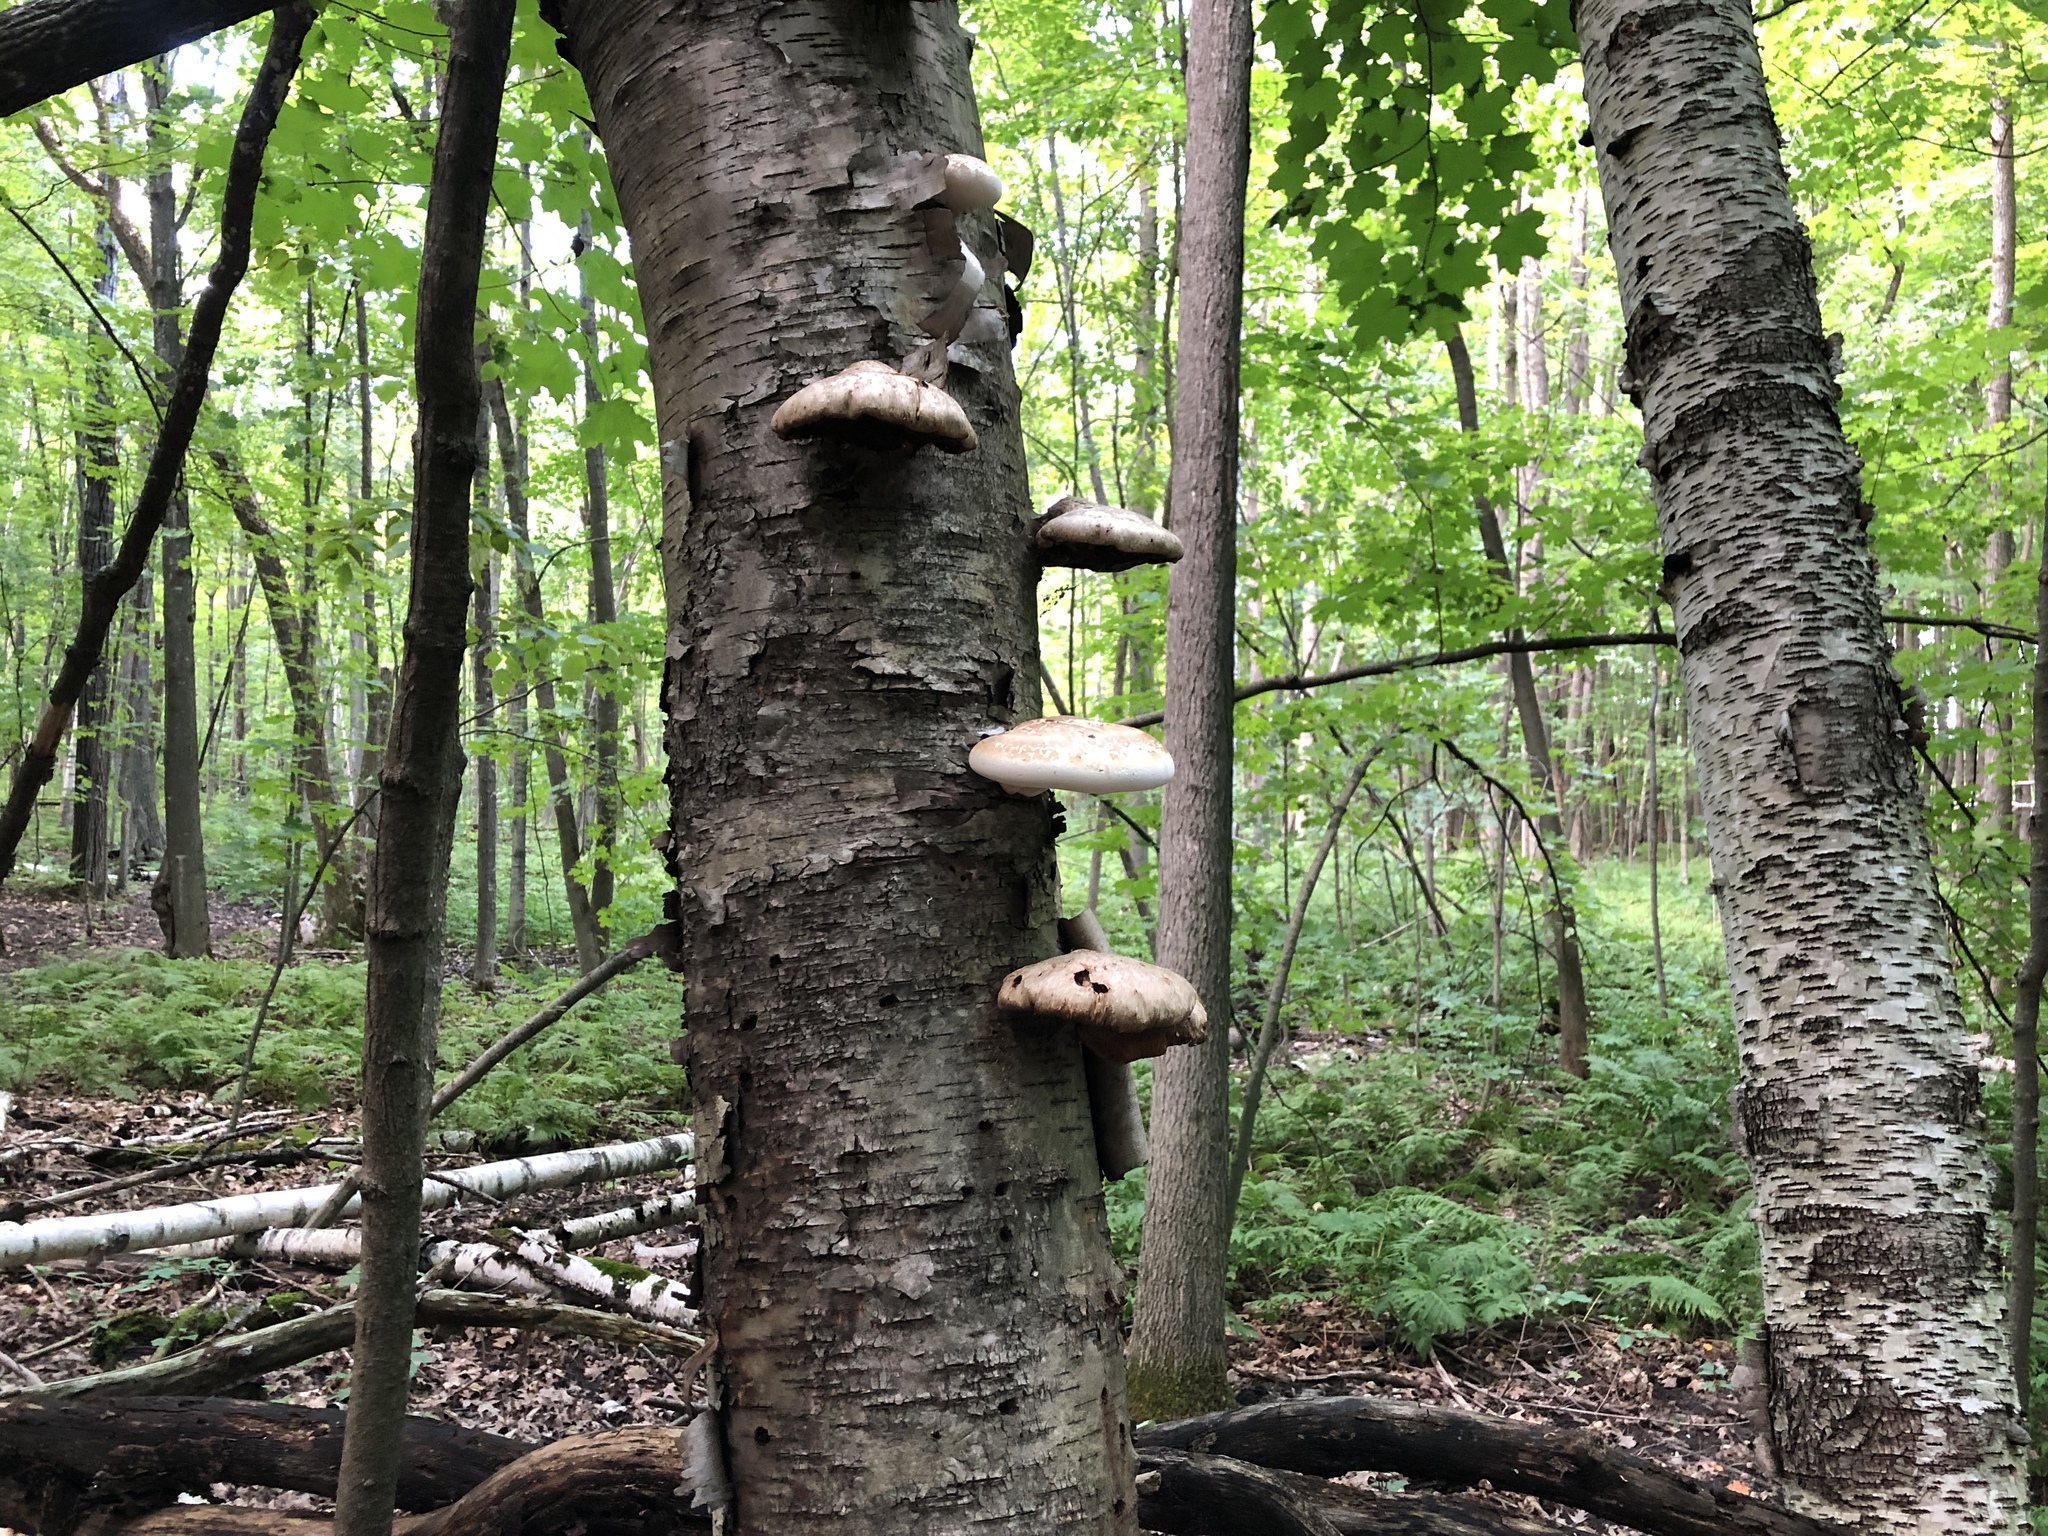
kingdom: Fungi
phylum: Basidiomycota
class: Agaricomycetes
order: Polyporales
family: Fomitopsidaceae
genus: Fomitopsis
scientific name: Fomitopsis betulina
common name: Birch polypore
